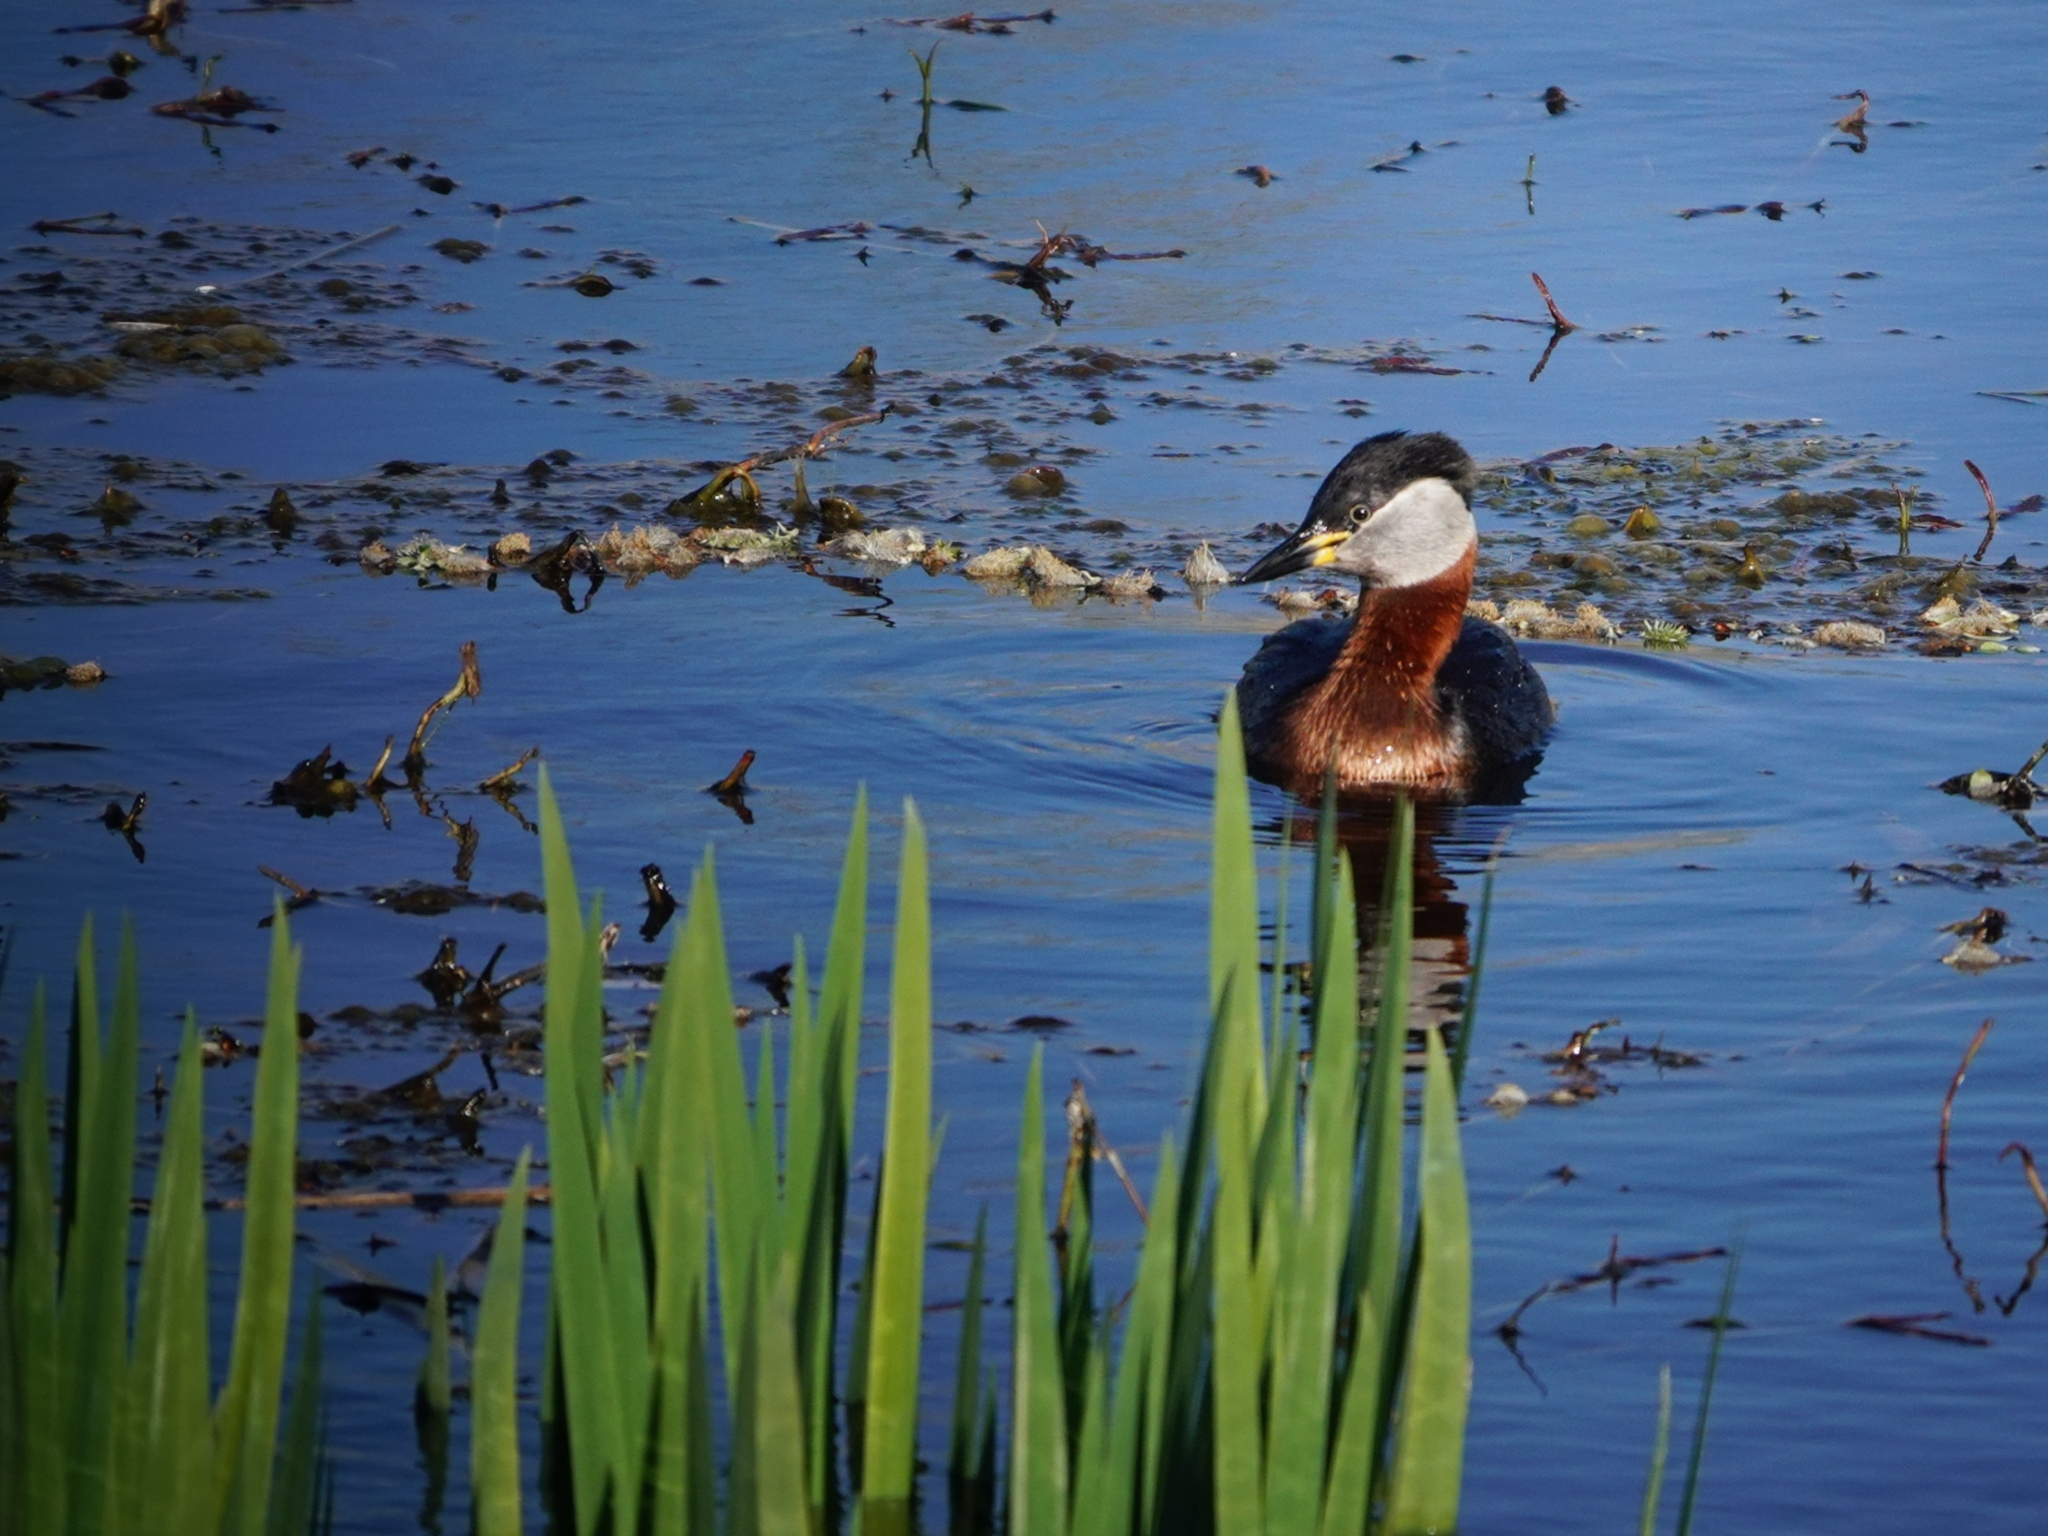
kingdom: Animalia
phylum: Chordata
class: Aves
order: Podicipediformes
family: Podicipedidae
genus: Podiceps
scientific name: Podiceps grisegena
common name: Red-necked grebe
